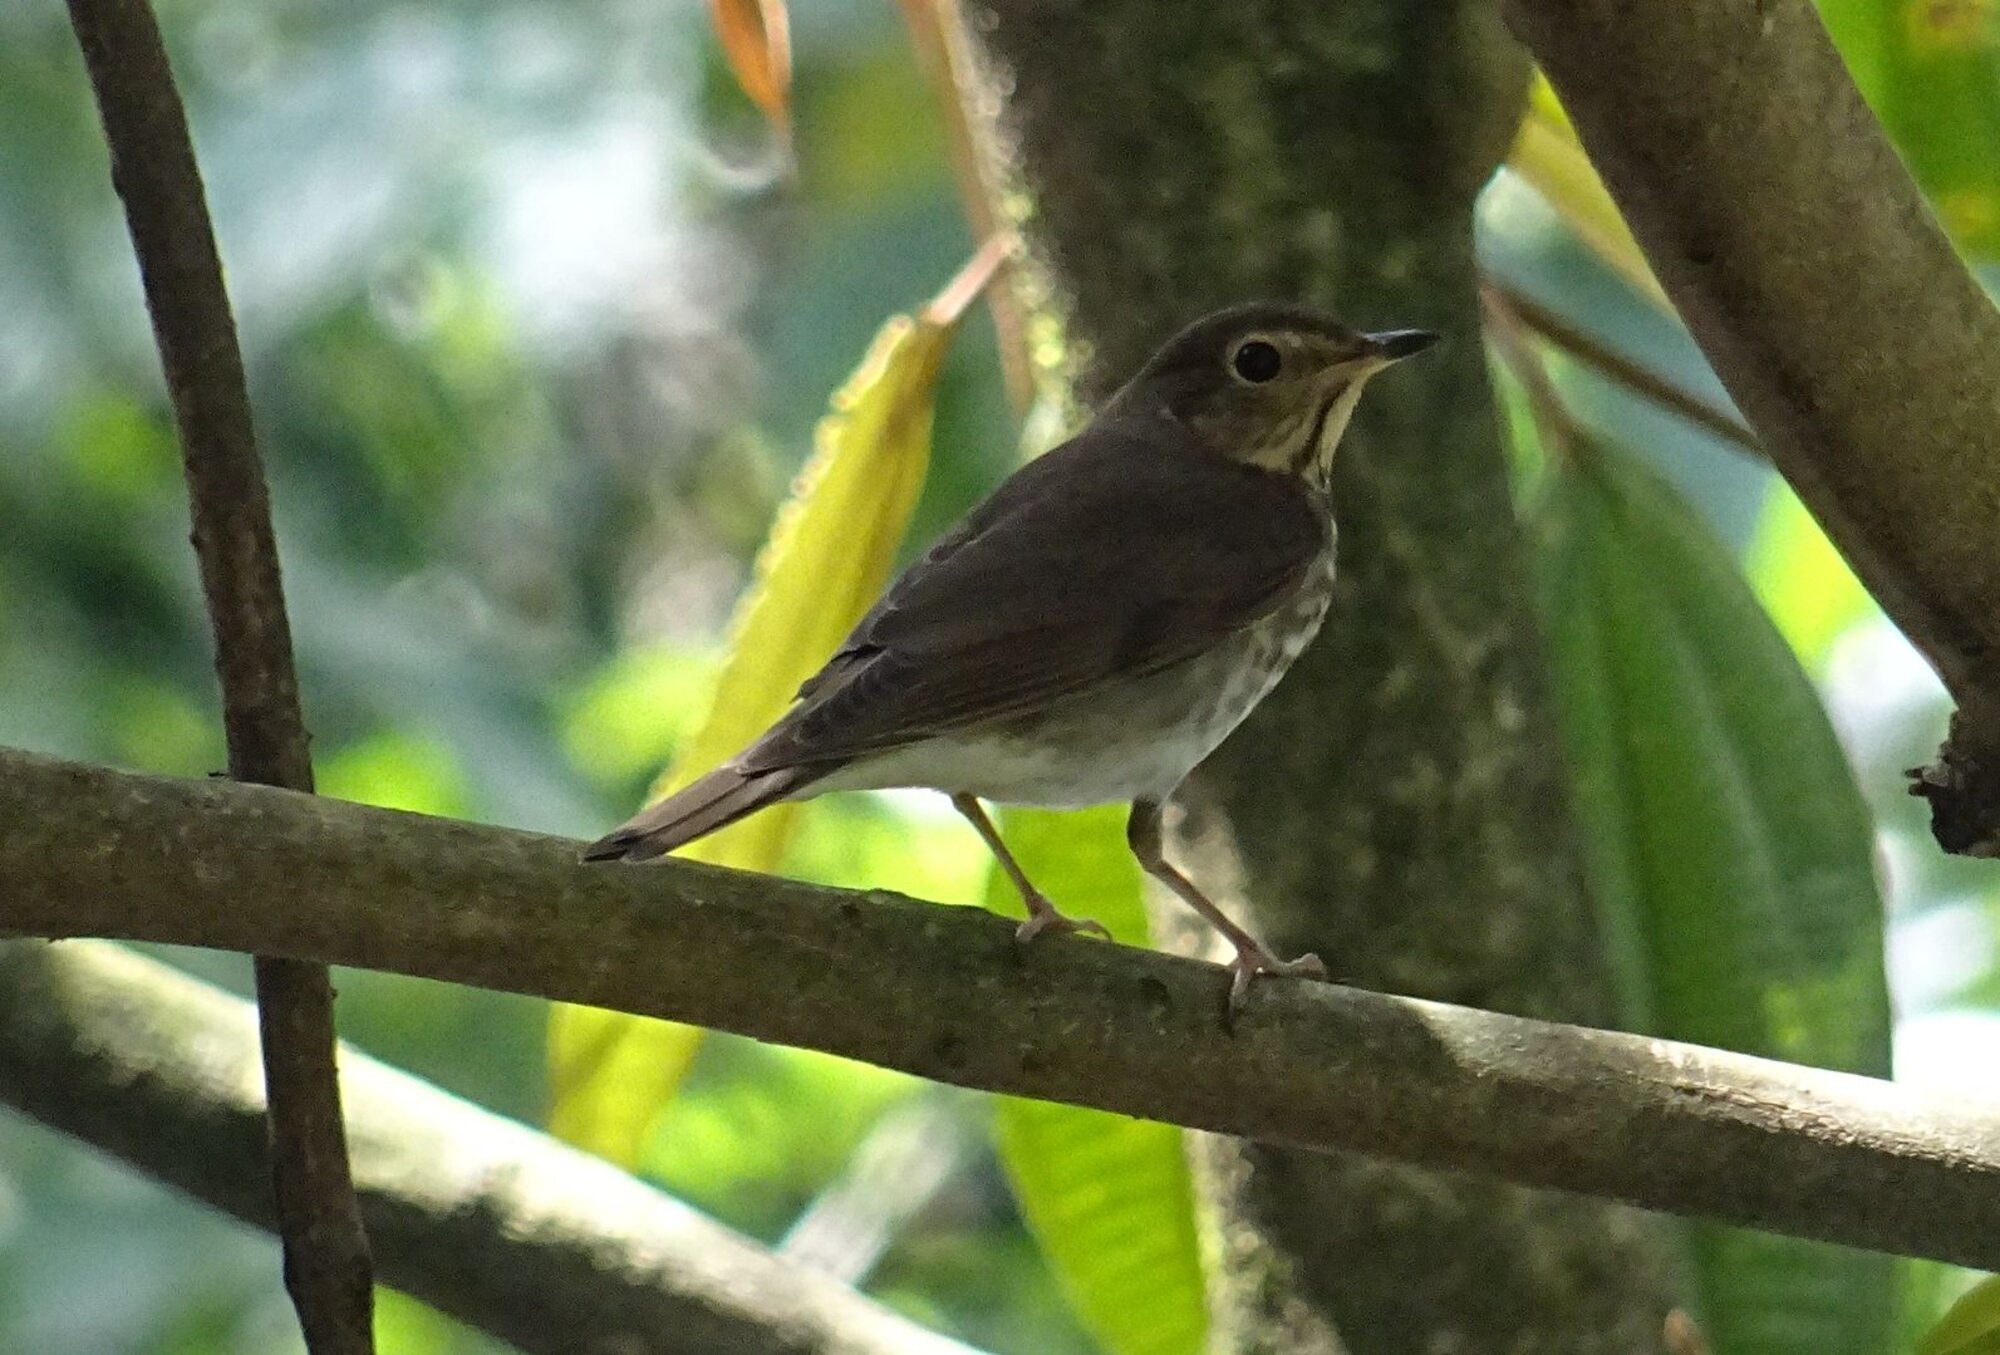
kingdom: Animalia
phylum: Chordata
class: Aves
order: Passeriformes
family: Turdidae
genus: Catharus
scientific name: Catharus ustulatus
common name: Swainson's thrush
